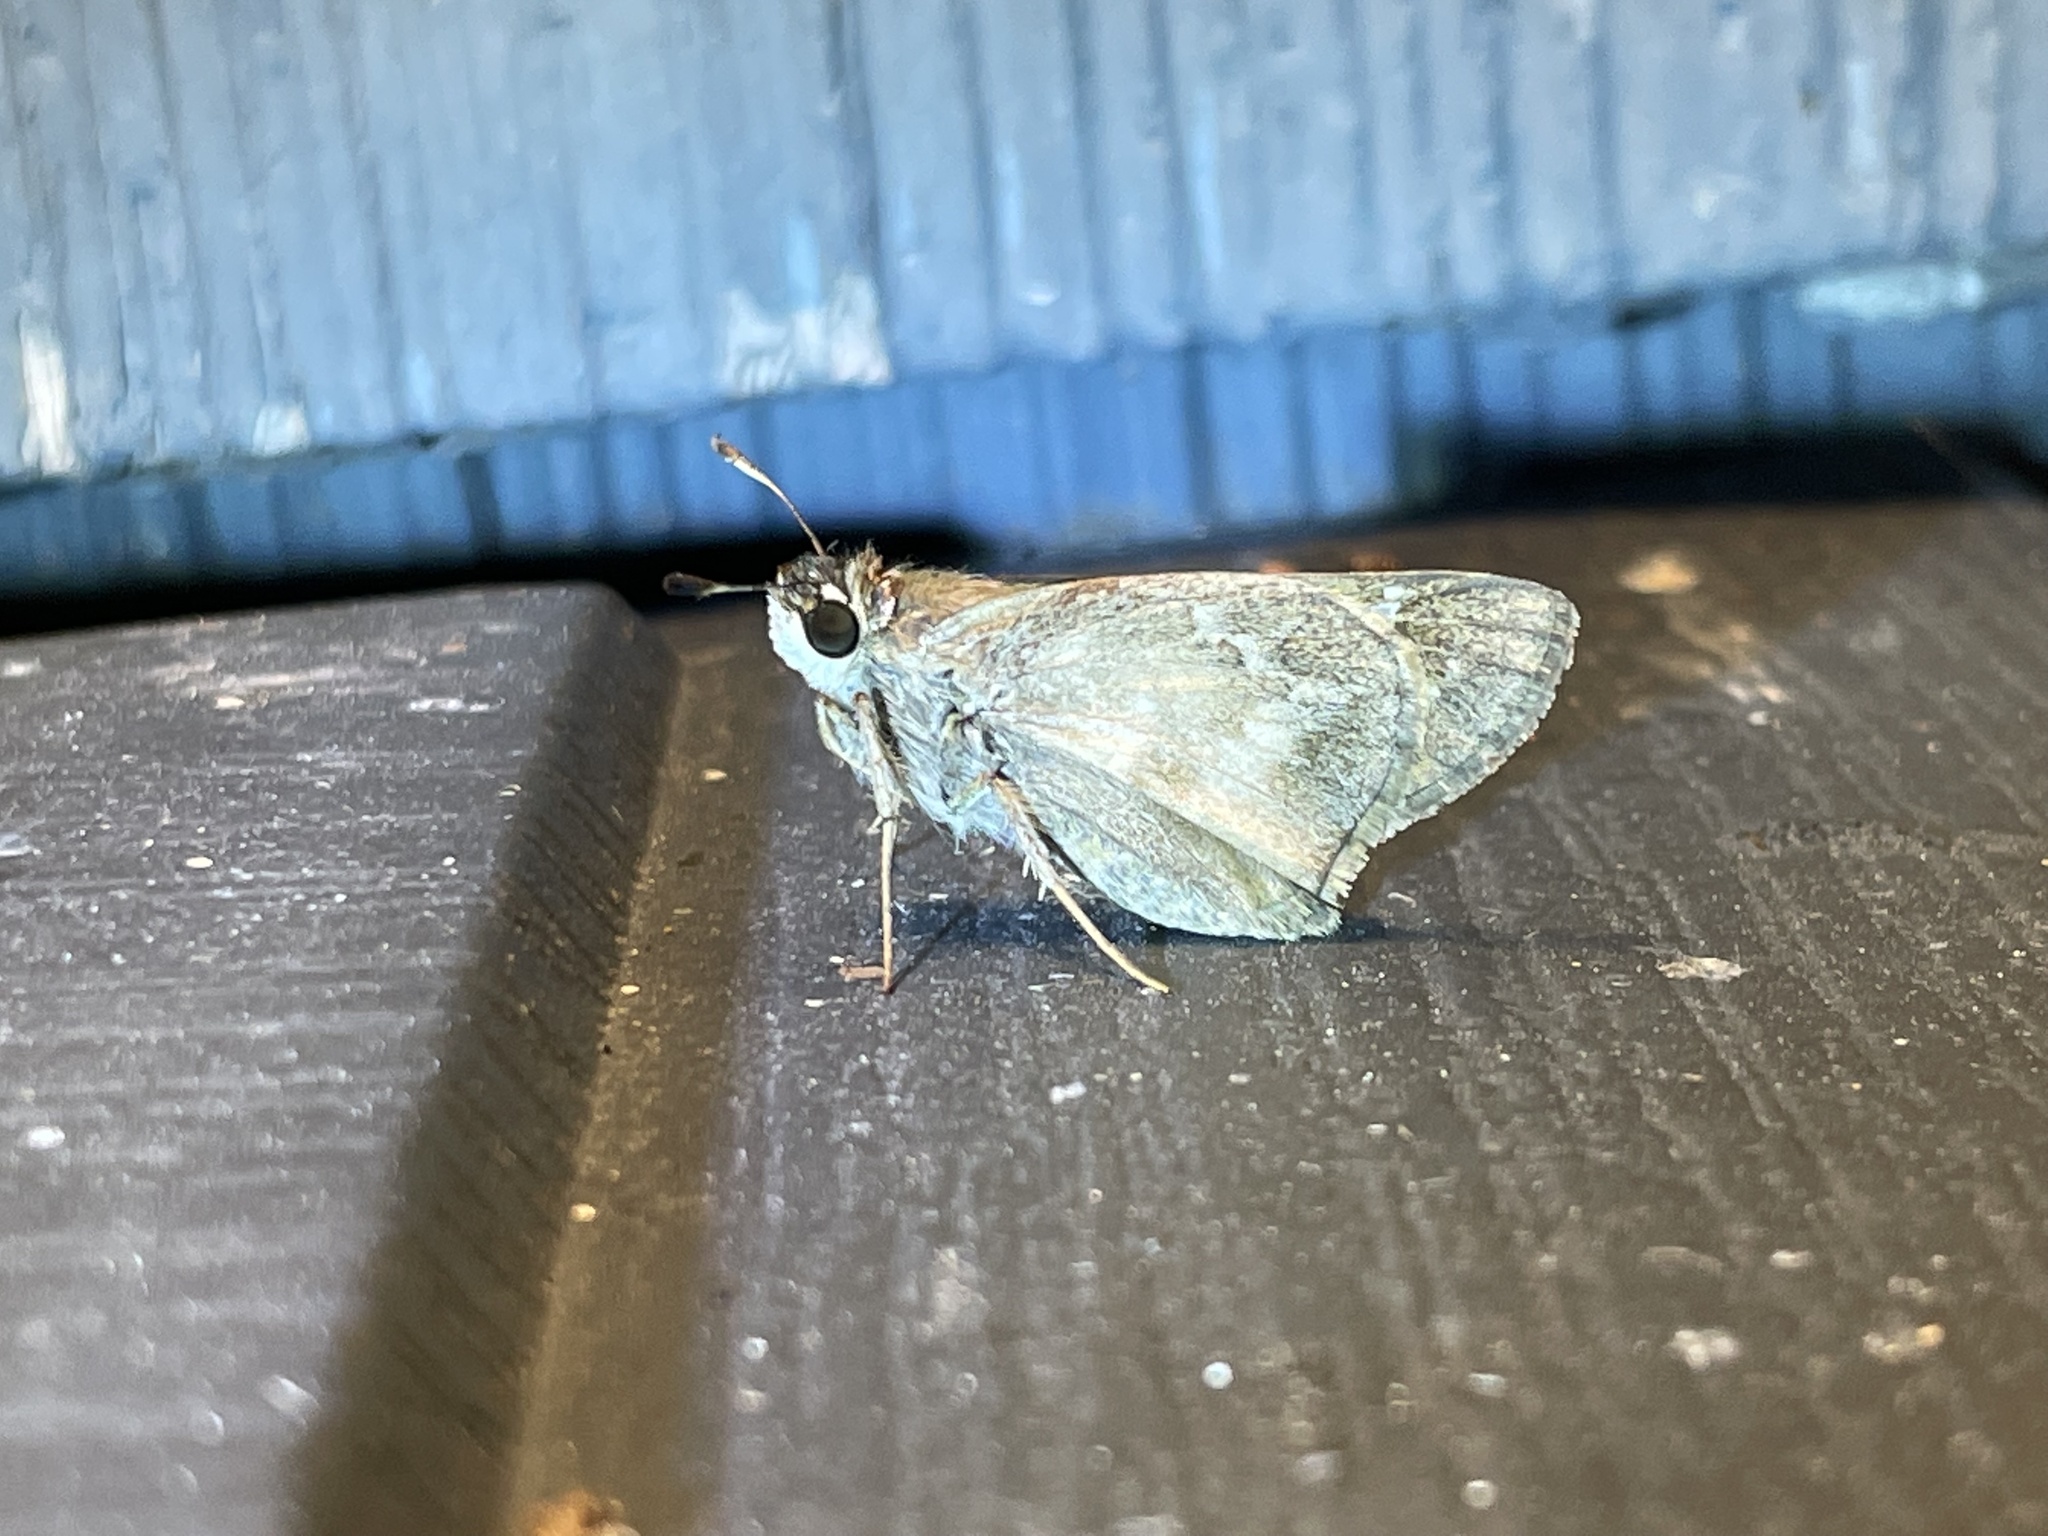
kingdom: Animalia
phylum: Arthropoda
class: Insecta
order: Lepidoptera
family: Hesperiidae
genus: Atalopedes
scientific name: Atalopedes
